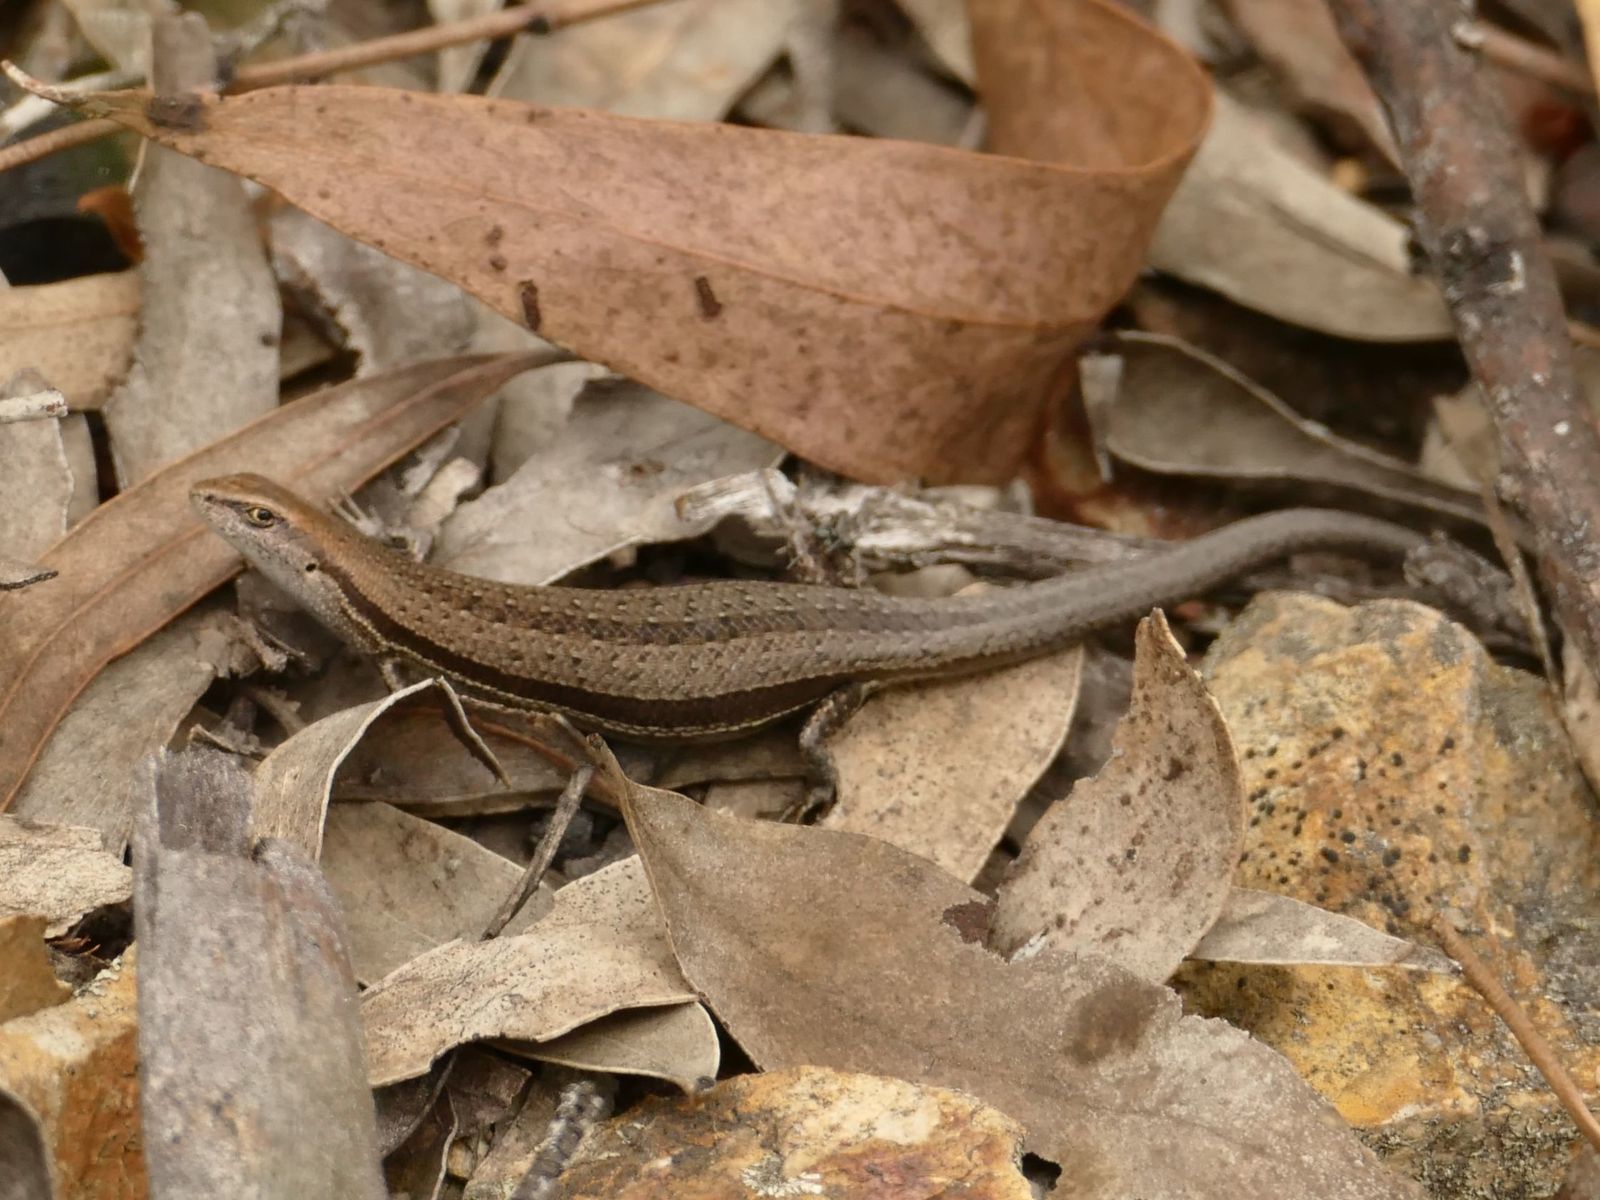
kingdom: Animalia
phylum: Chordata
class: Squamata
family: Scincidae
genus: Lampropholis
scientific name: Lampropholis guichenoti
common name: Garden skink
